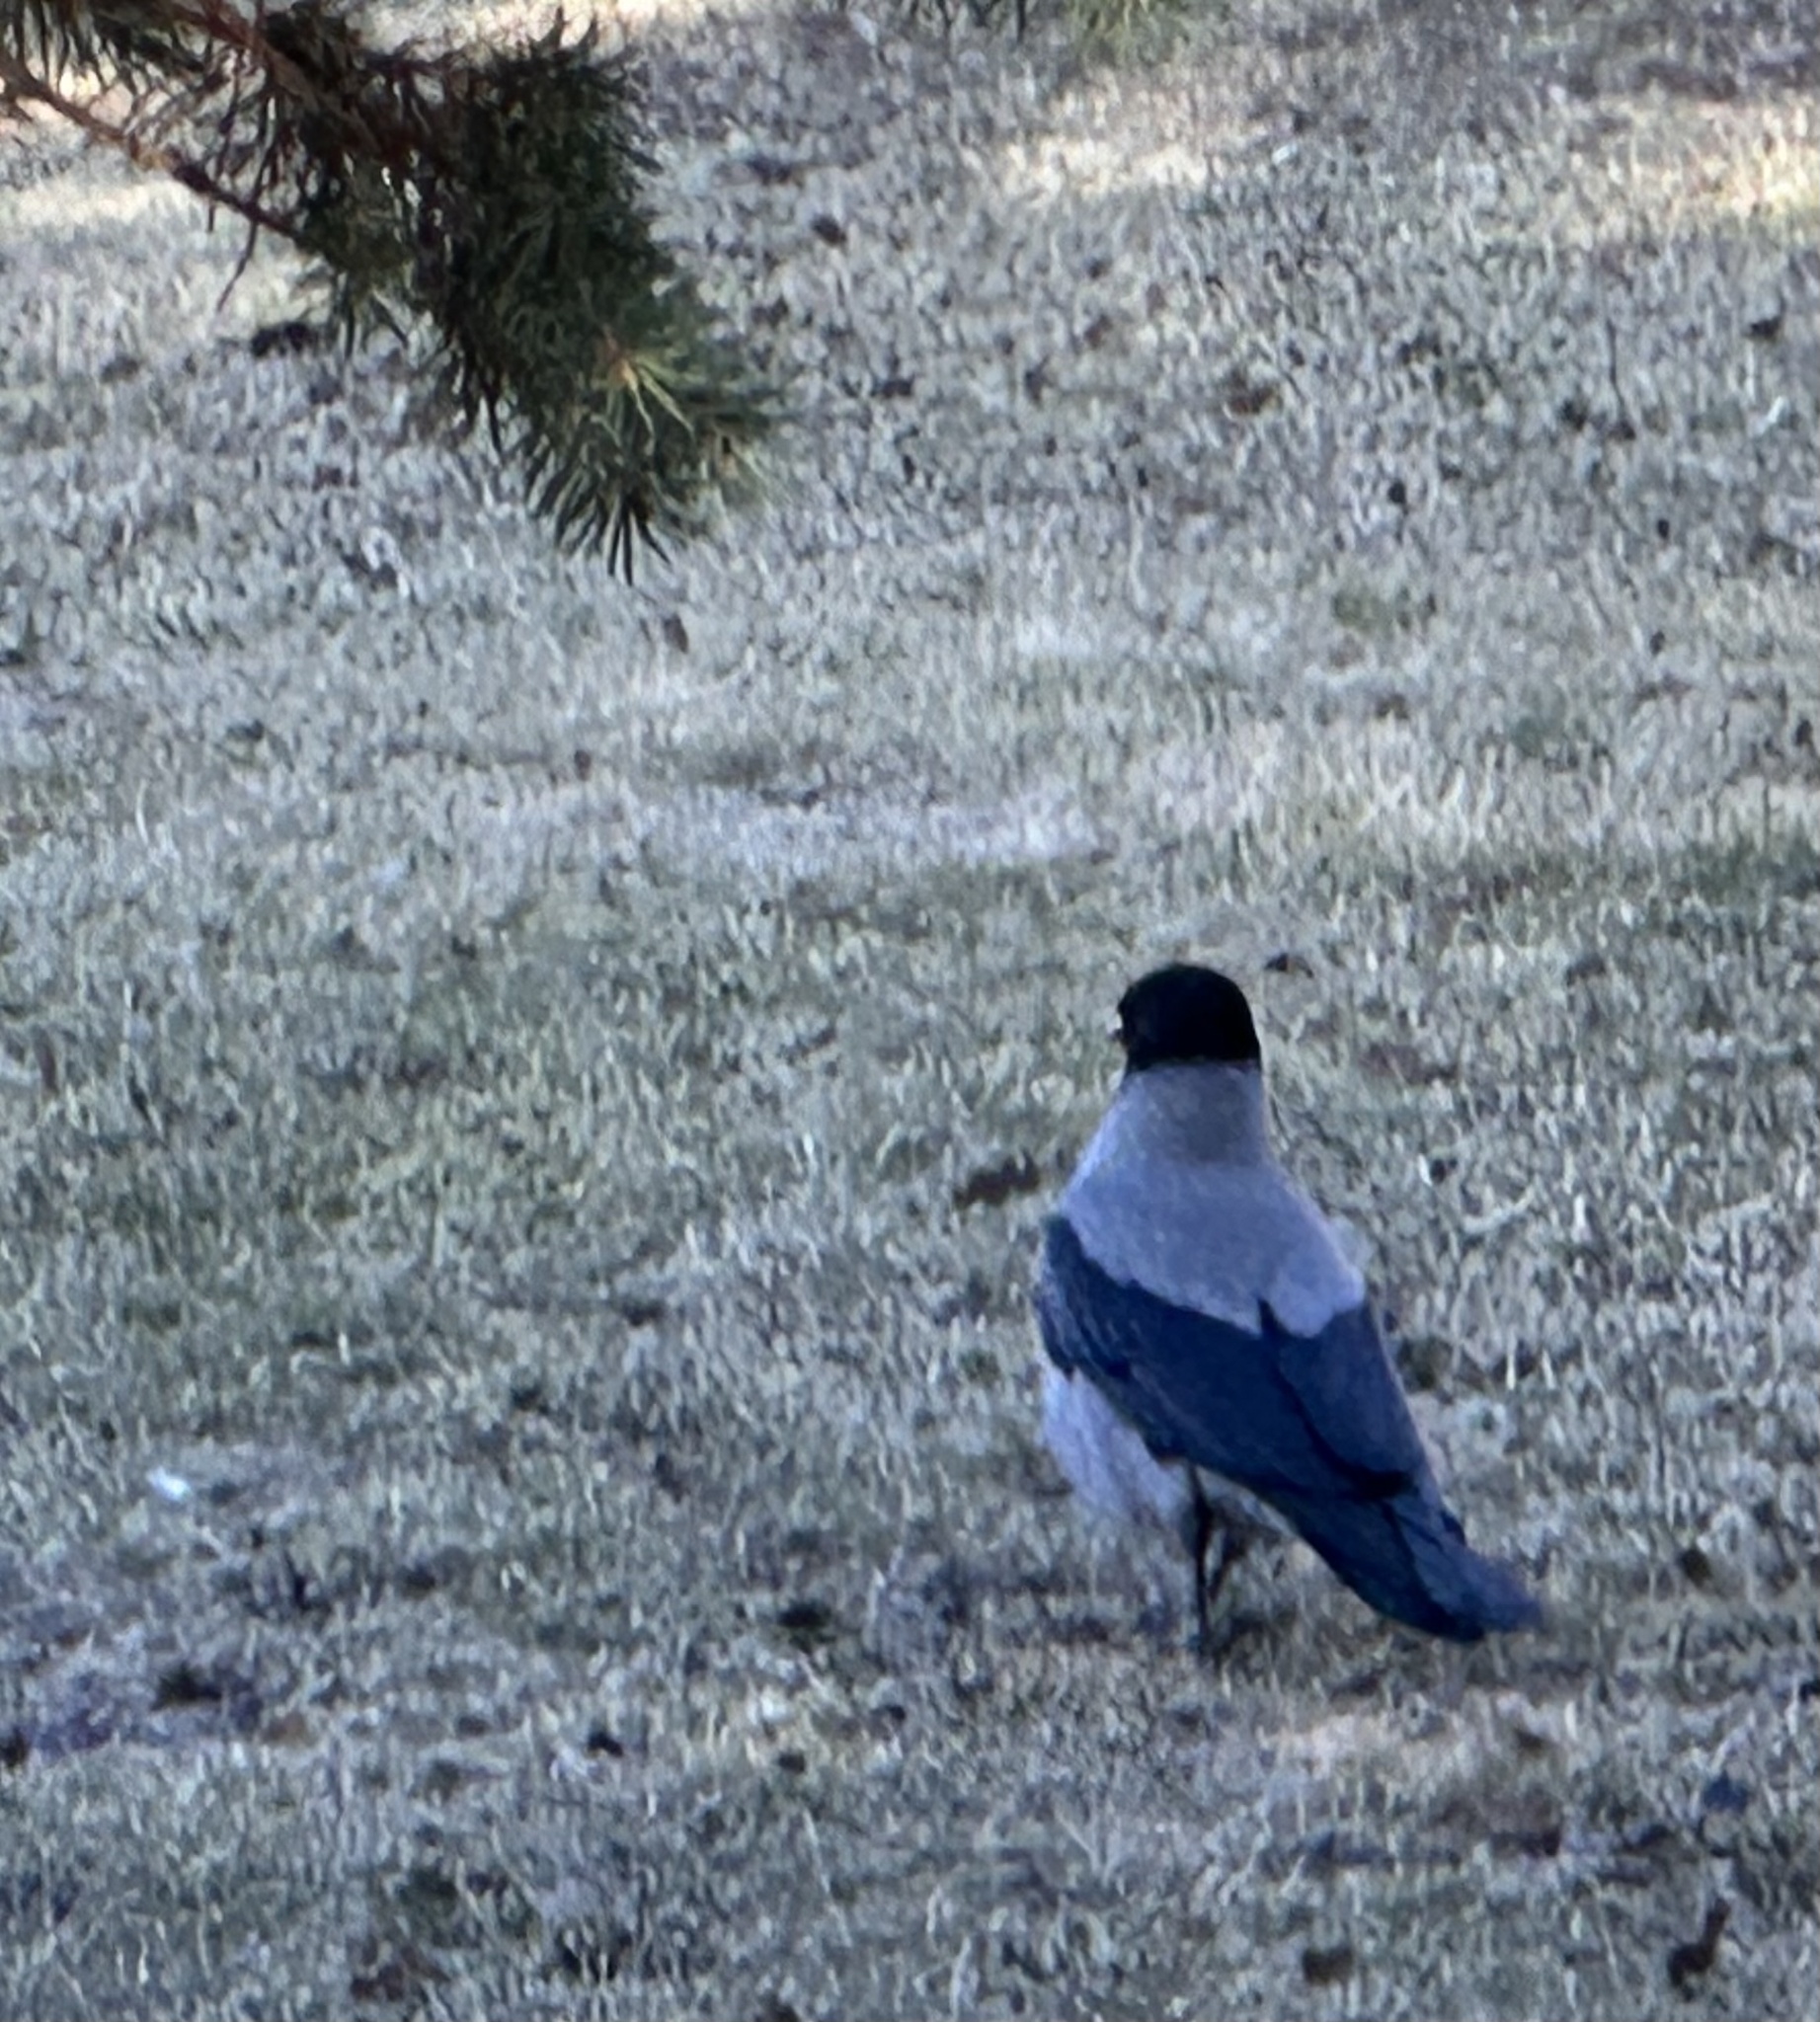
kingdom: Animalia
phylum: Chordata
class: Aves
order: Passeriformes
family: Corvidae
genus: Corvus
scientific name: Corvus cornix
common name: Hooded crow
